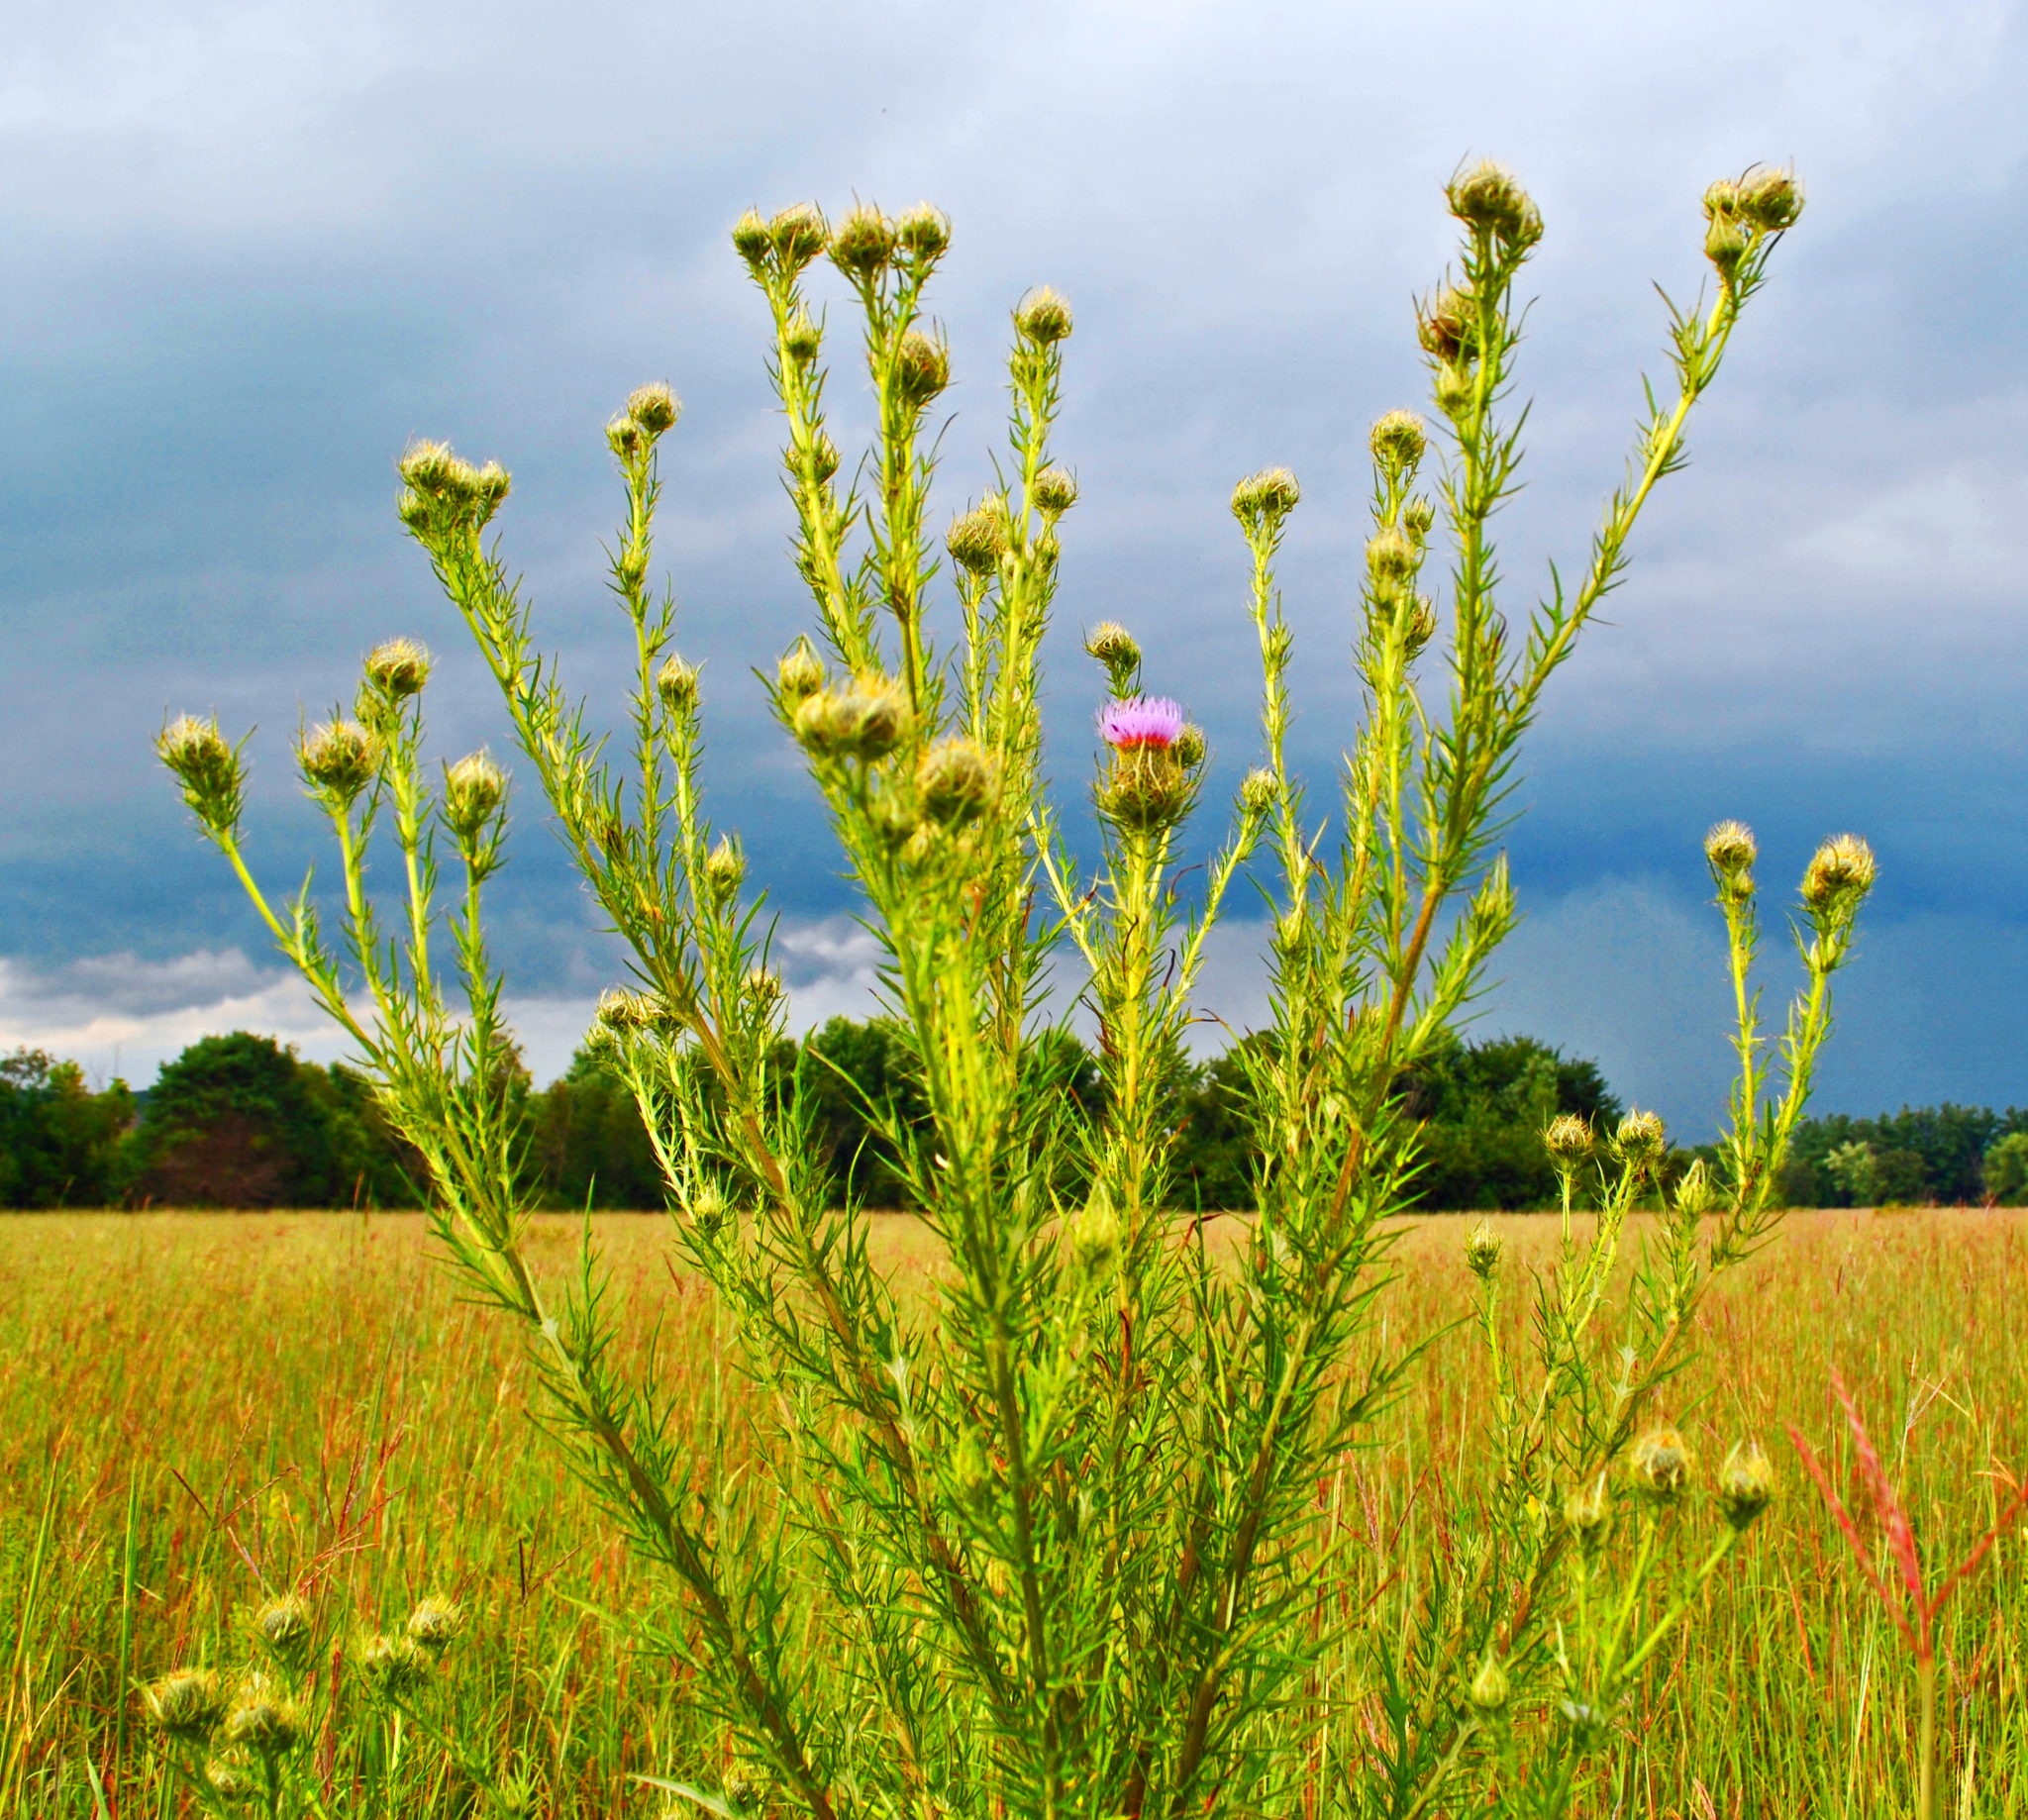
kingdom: Plantae
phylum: Tracheophyta
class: Magnoliopsida
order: Asterales
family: Asteraceae
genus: Cirsium
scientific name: Cirsium discolor
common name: Field thistle
